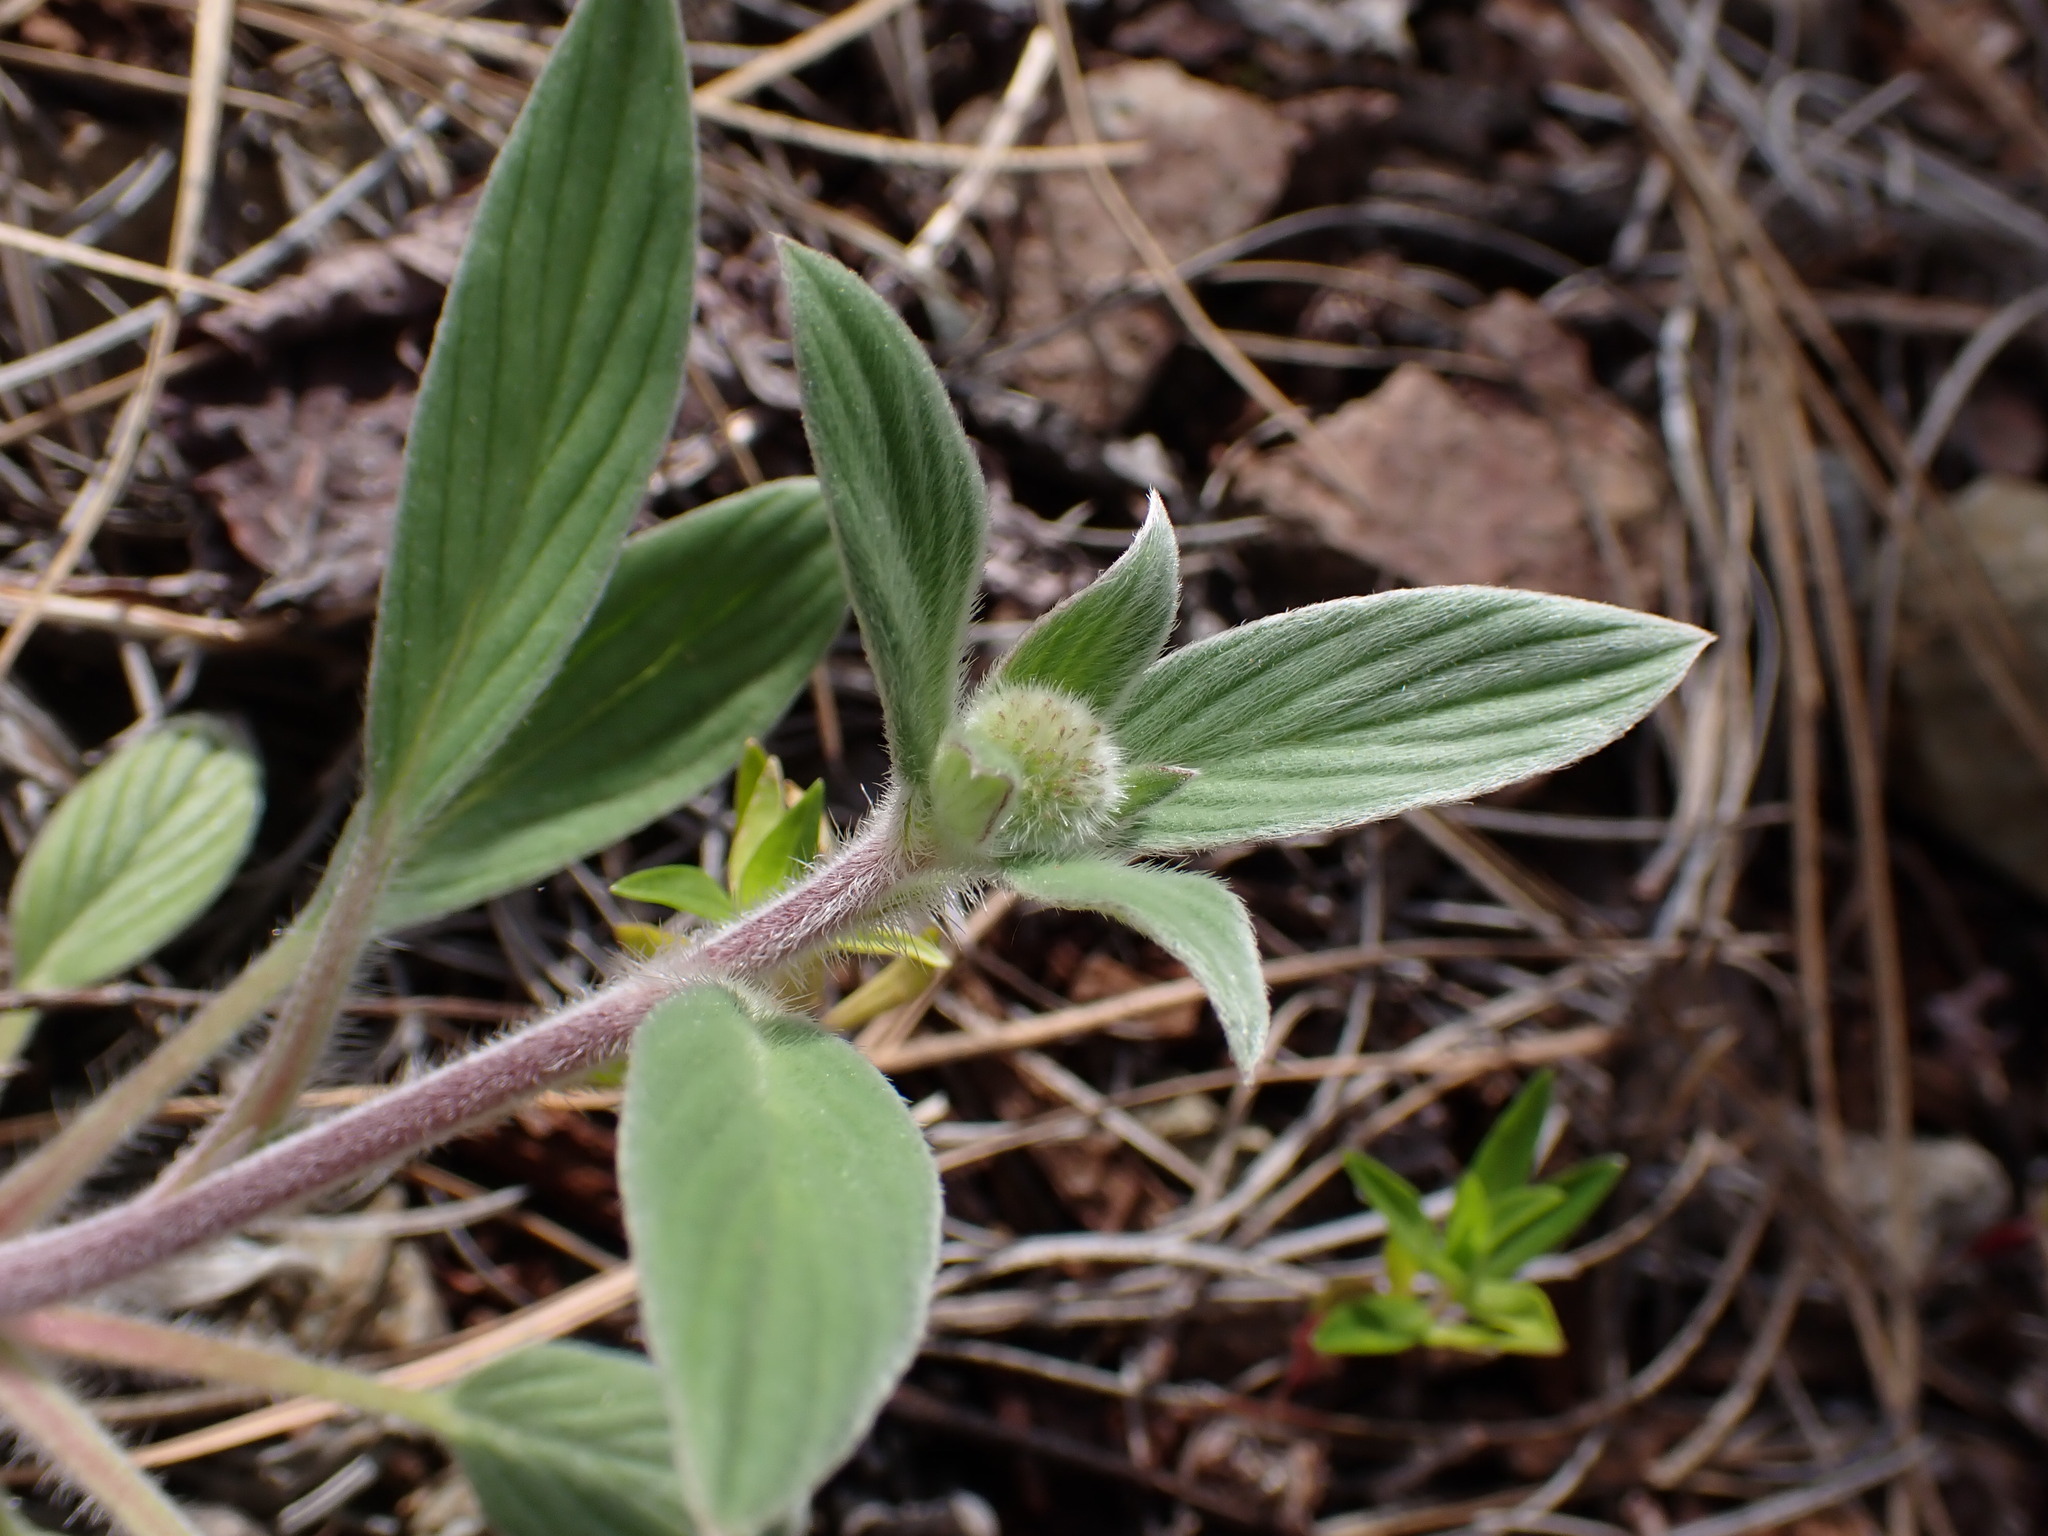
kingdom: Plantae
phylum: Tracheophyta
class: Magnoliopsida
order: Boraginales
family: Hydrophyllaceae
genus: Phacelia
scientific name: Phacelia hastata
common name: Silver-leaved phacelia
